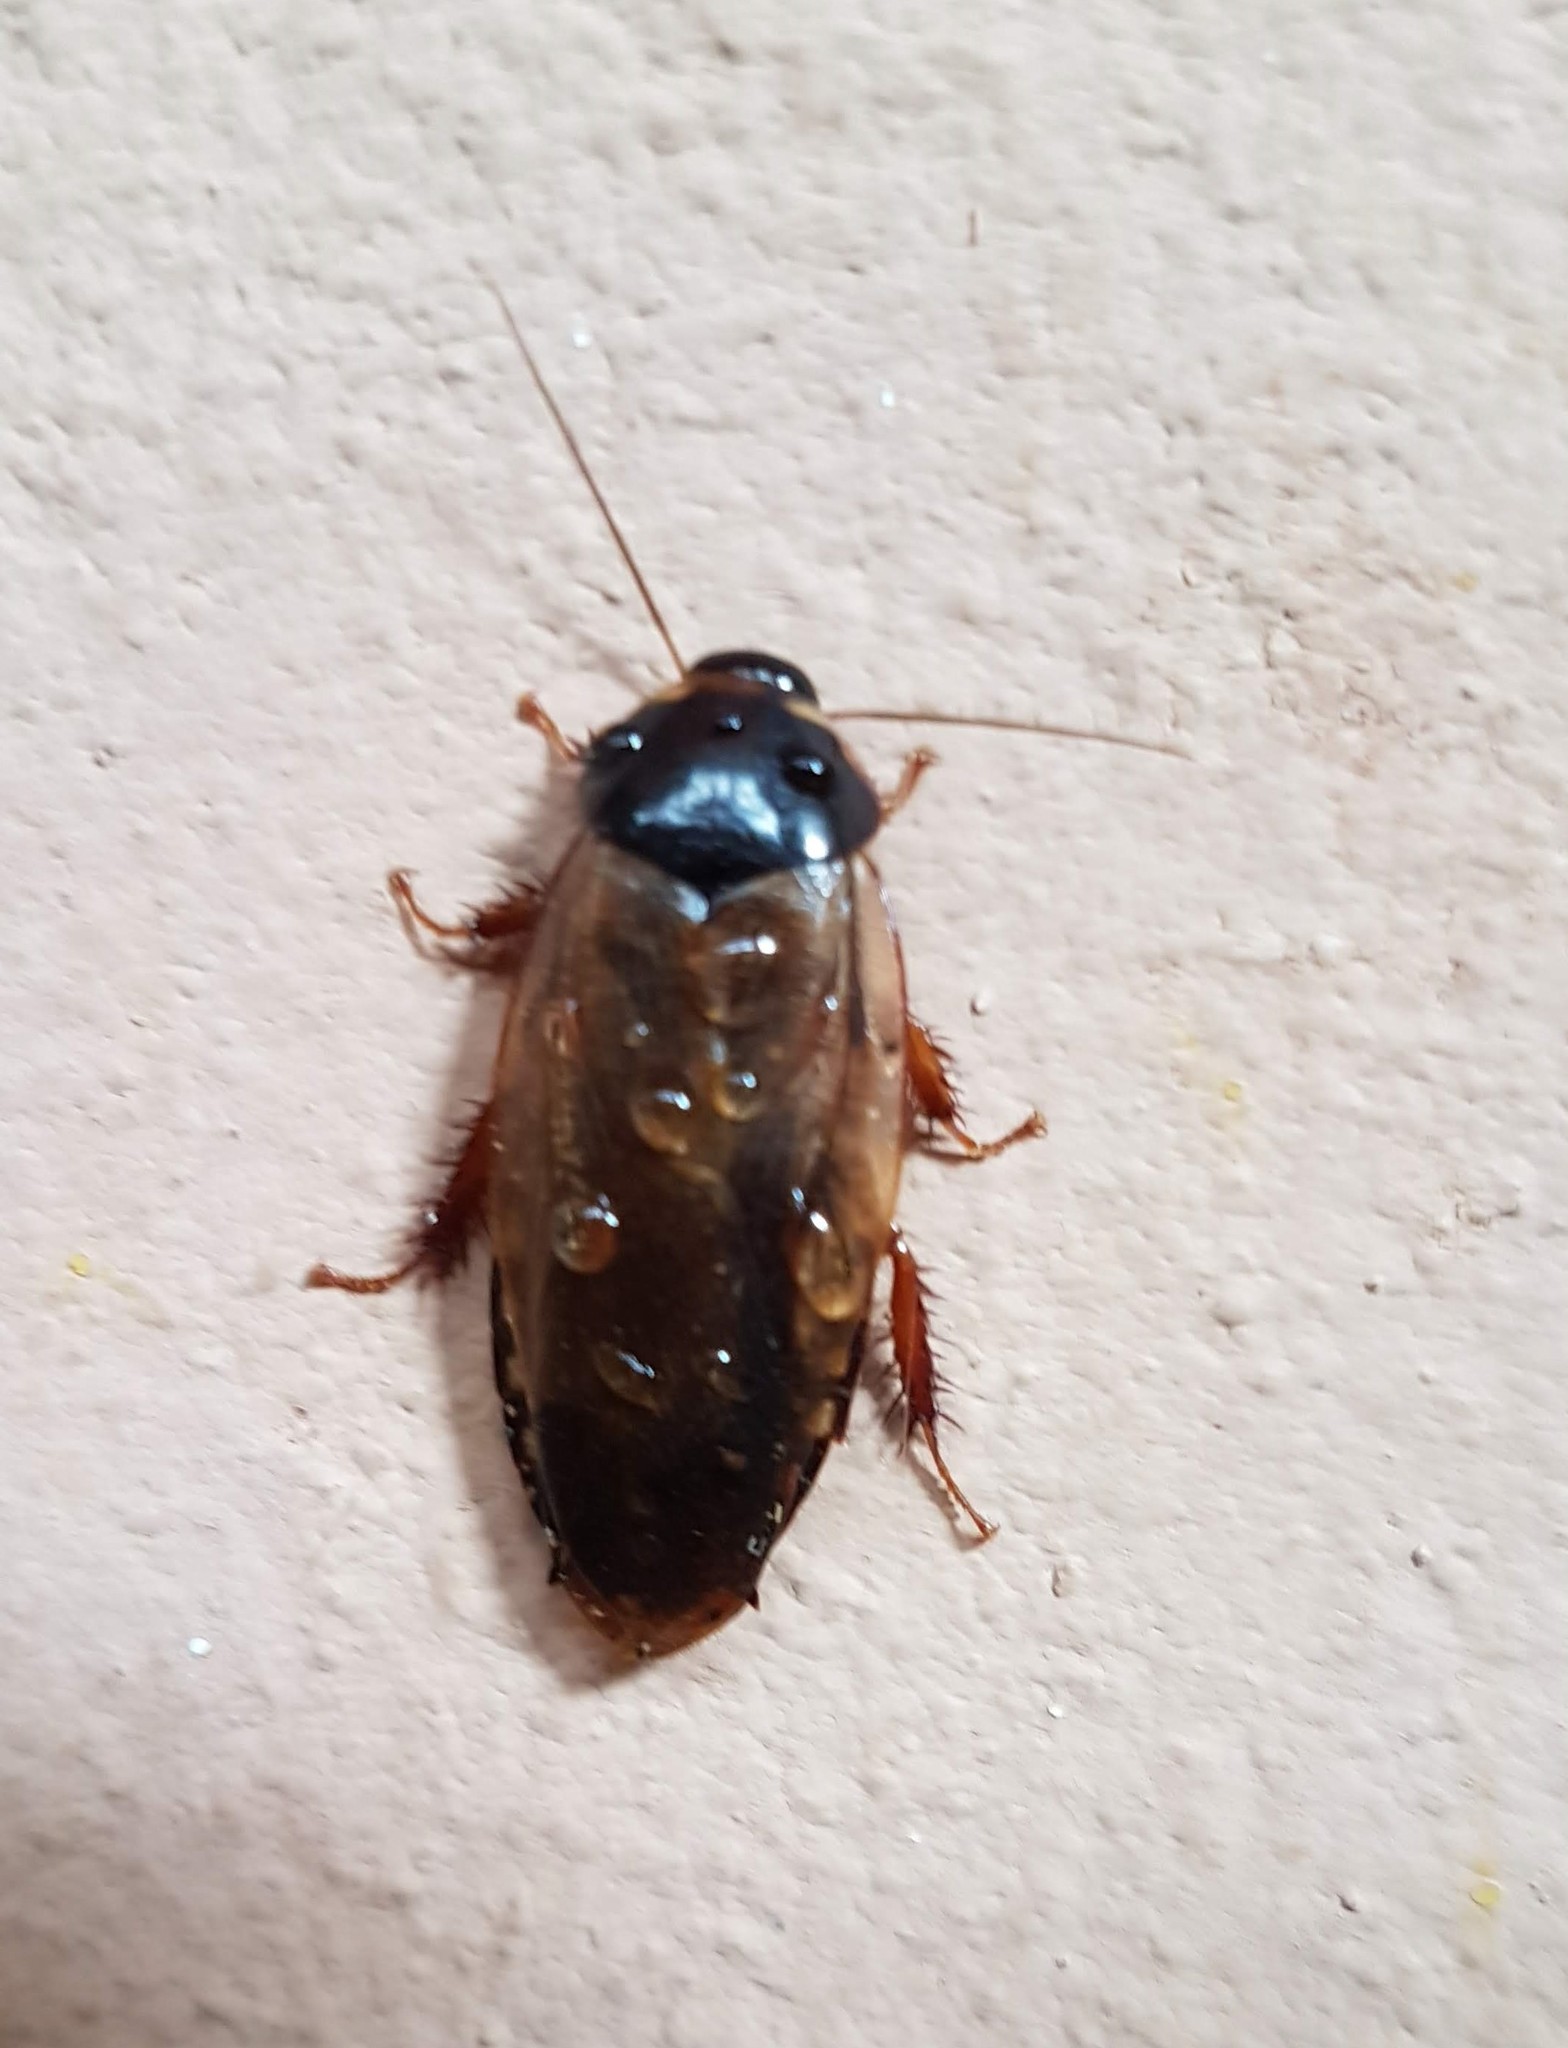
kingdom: Animalia
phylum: Arthropoda
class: Insecta
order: Blattodea
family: Blaberidae
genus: Pycnoscelus
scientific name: Pycnoscelus surinamensis
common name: Surinam cockroach
